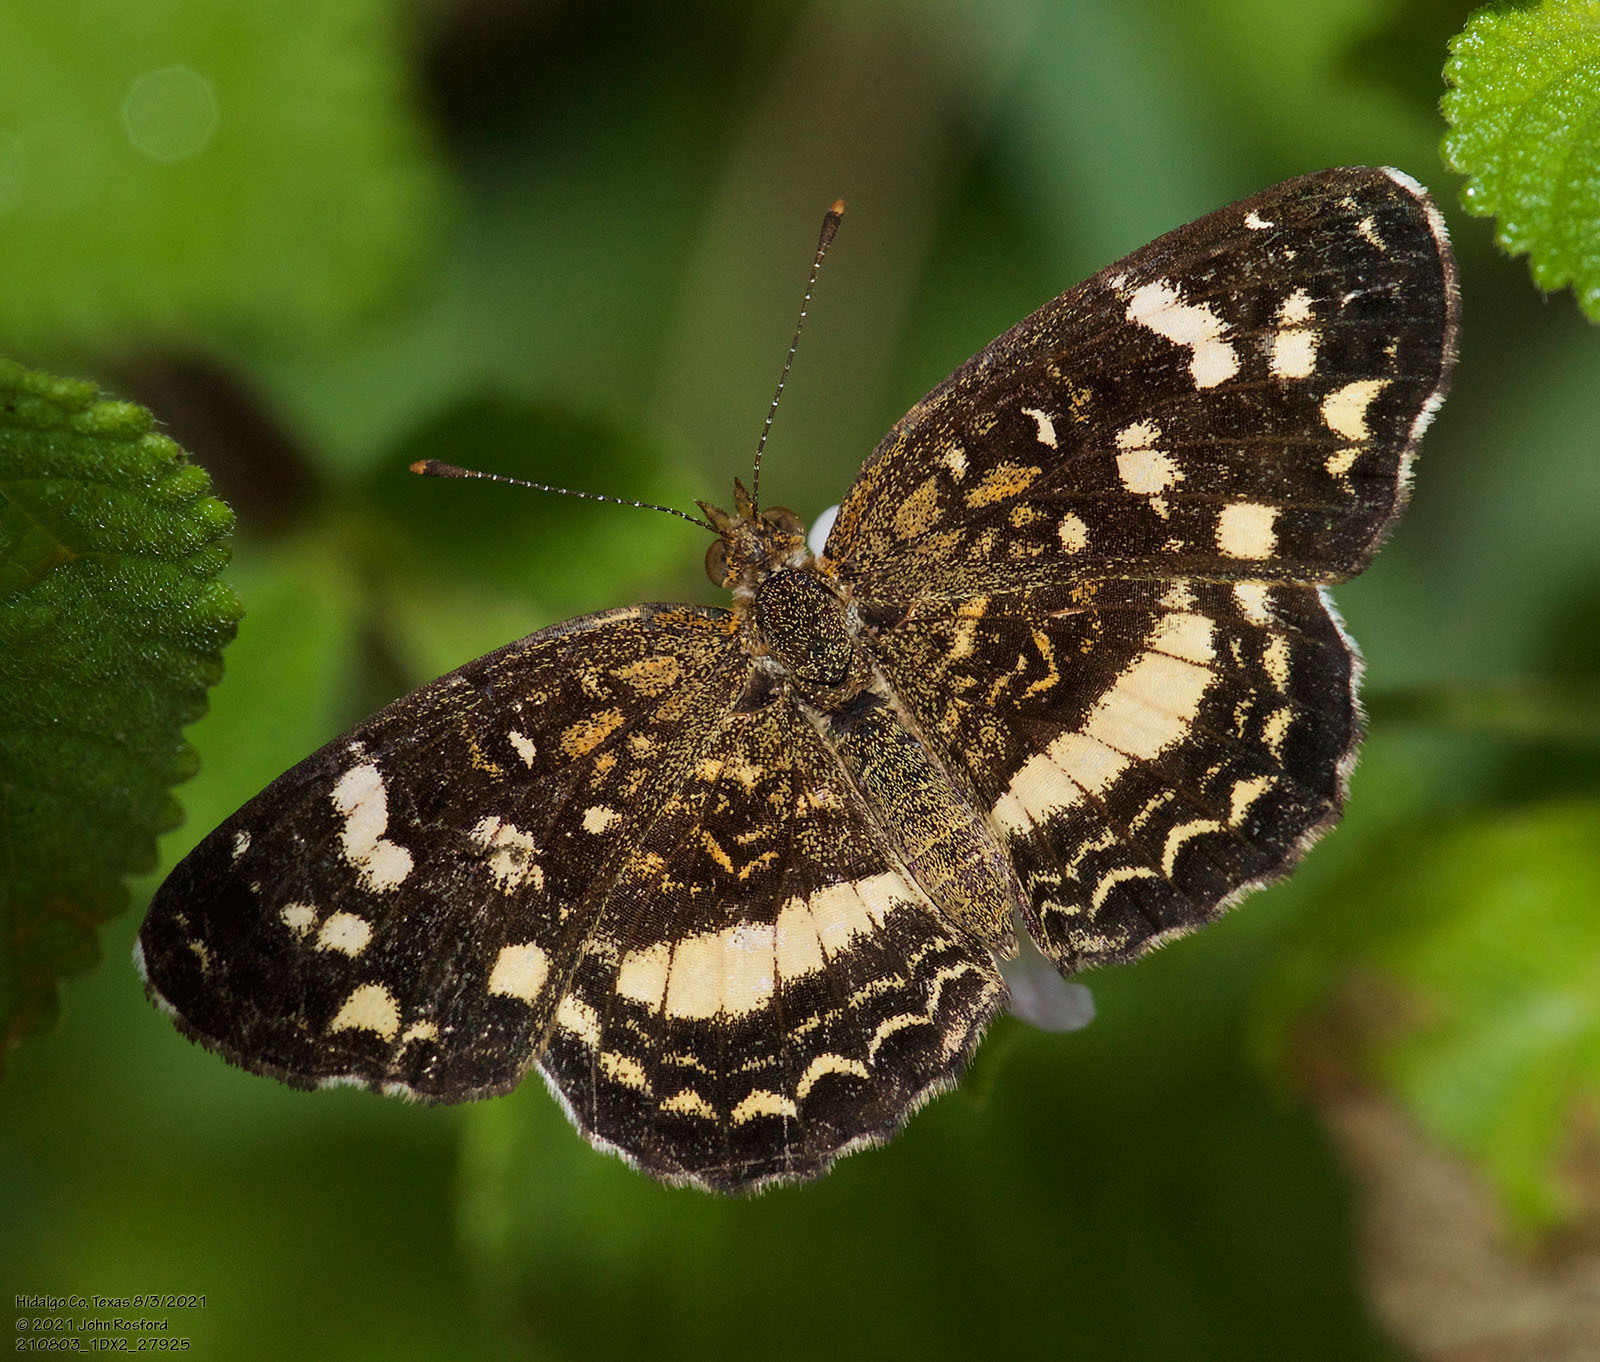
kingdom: Animalia
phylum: Arthropoda
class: Insecta
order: Lepidoptera
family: Nymphalidae
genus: Anthanassa
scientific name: Anthanassa tulcis
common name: Pale-banded crescent
